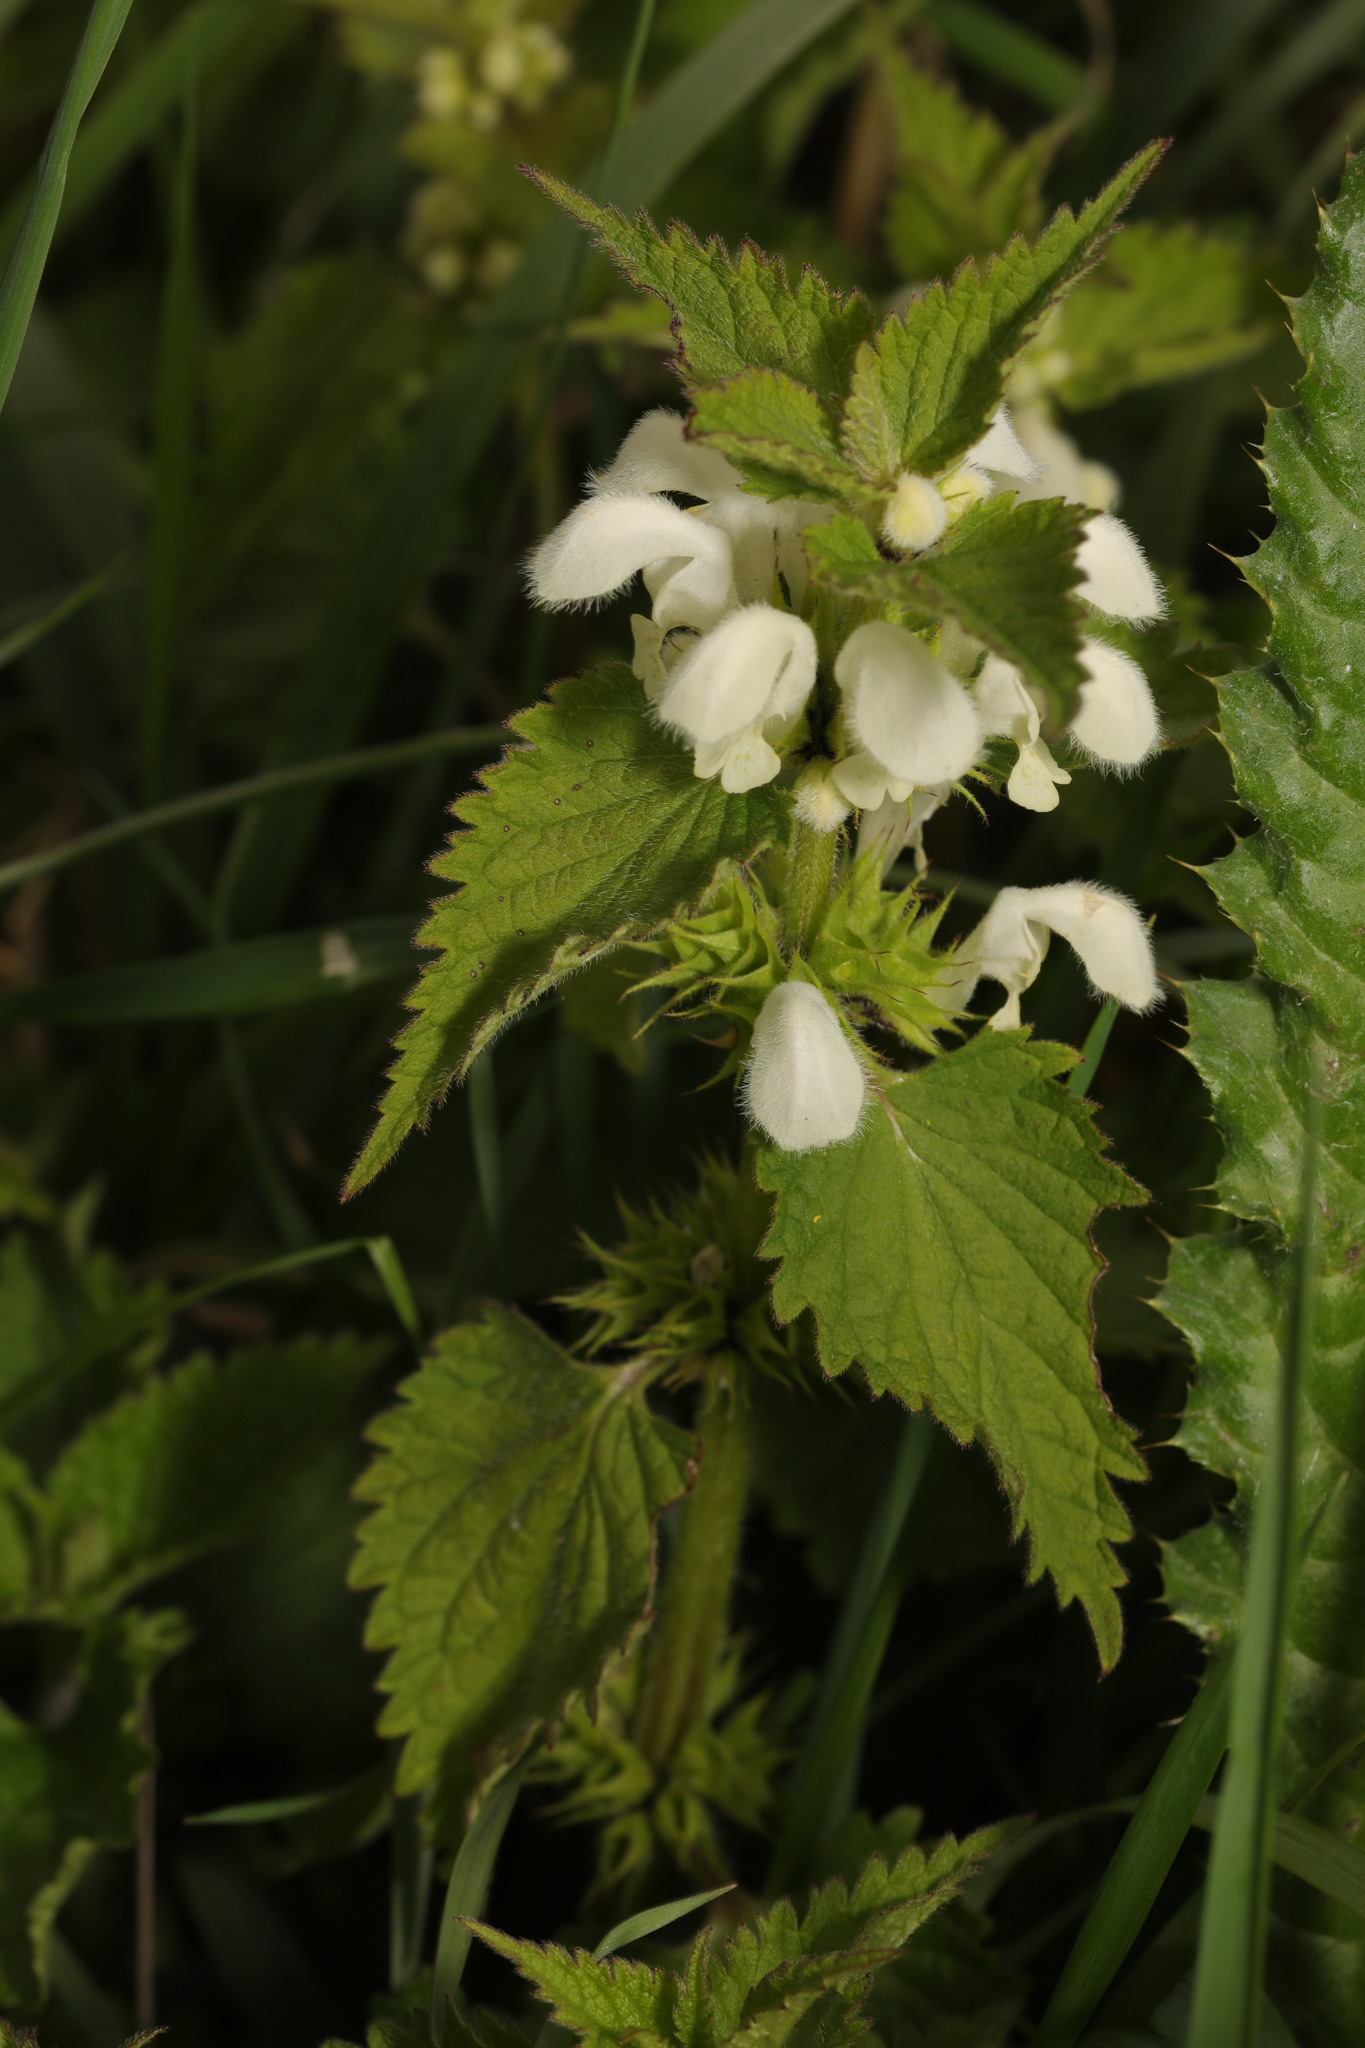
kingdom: Plantae
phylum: Tracheophyta
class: Magnoliopsida
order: Lamiales
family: Lamiaceae
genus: Lamium
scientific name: Lamium album
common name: White dead-nettle
